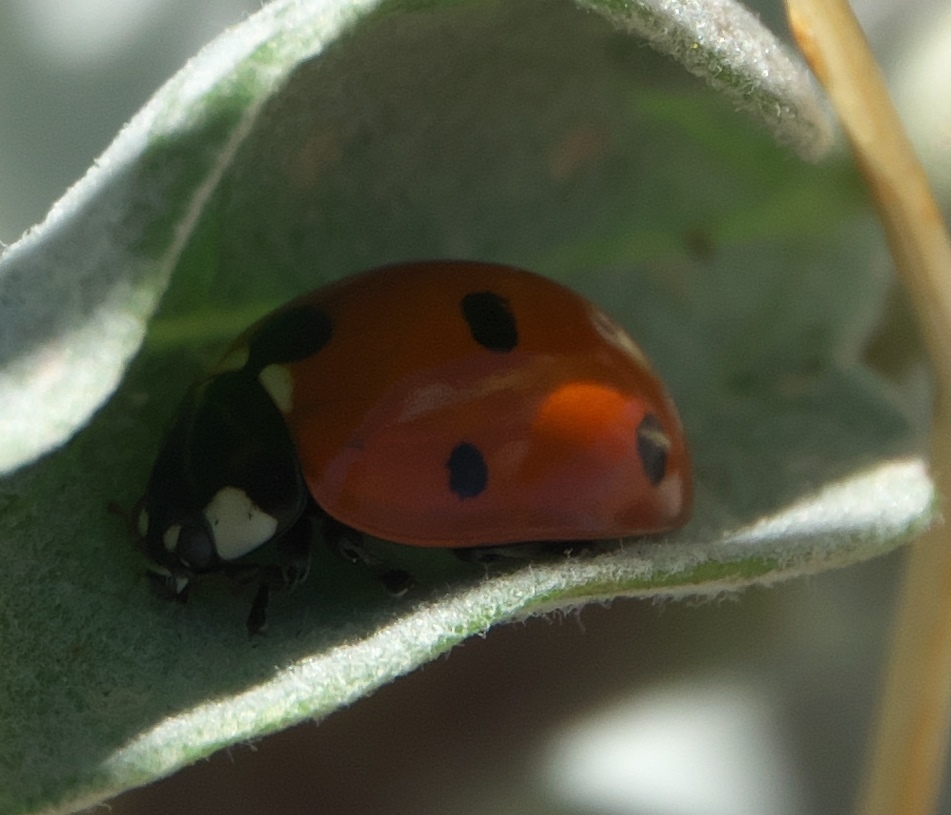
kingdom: Animalia
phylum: Arthropoda
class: Insecta
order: Coleoptera
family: Coccinellidae
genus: Coccinella
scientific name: Coccinella septempunctata
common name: Sevenspotted lady beetle
